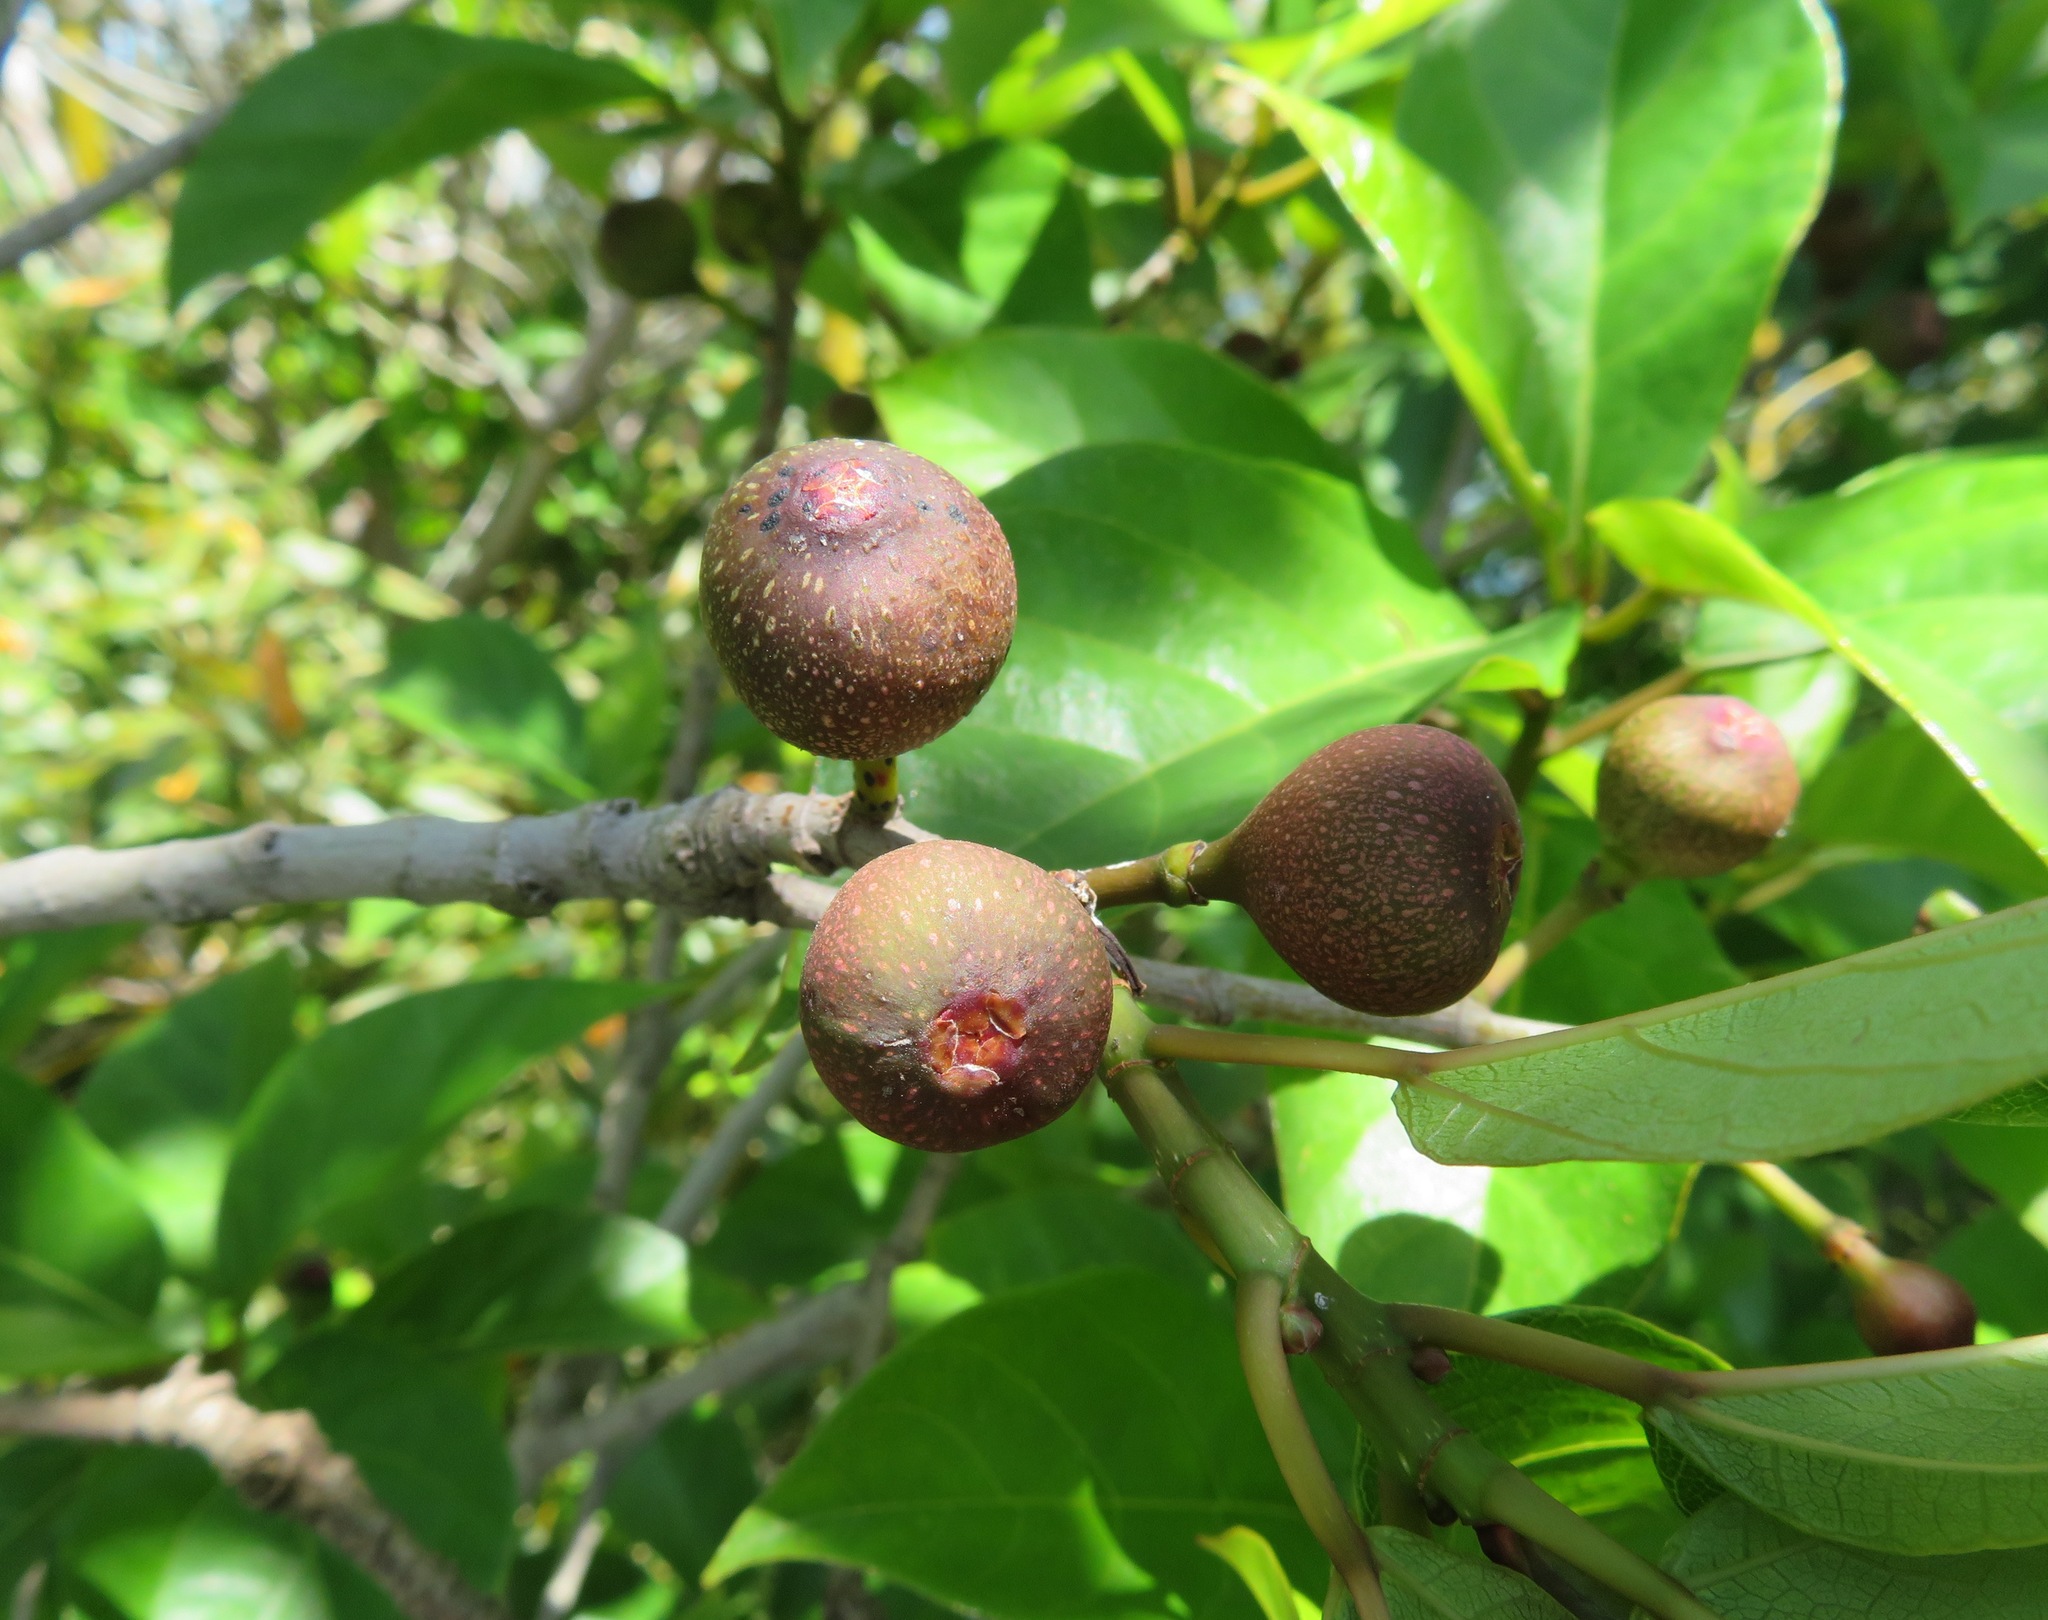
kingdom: Plantae
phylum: Tracheophyta
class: Magnoliopsida
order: Rosales
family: Moraceae
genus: Ficus
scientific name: Ficus erecta
